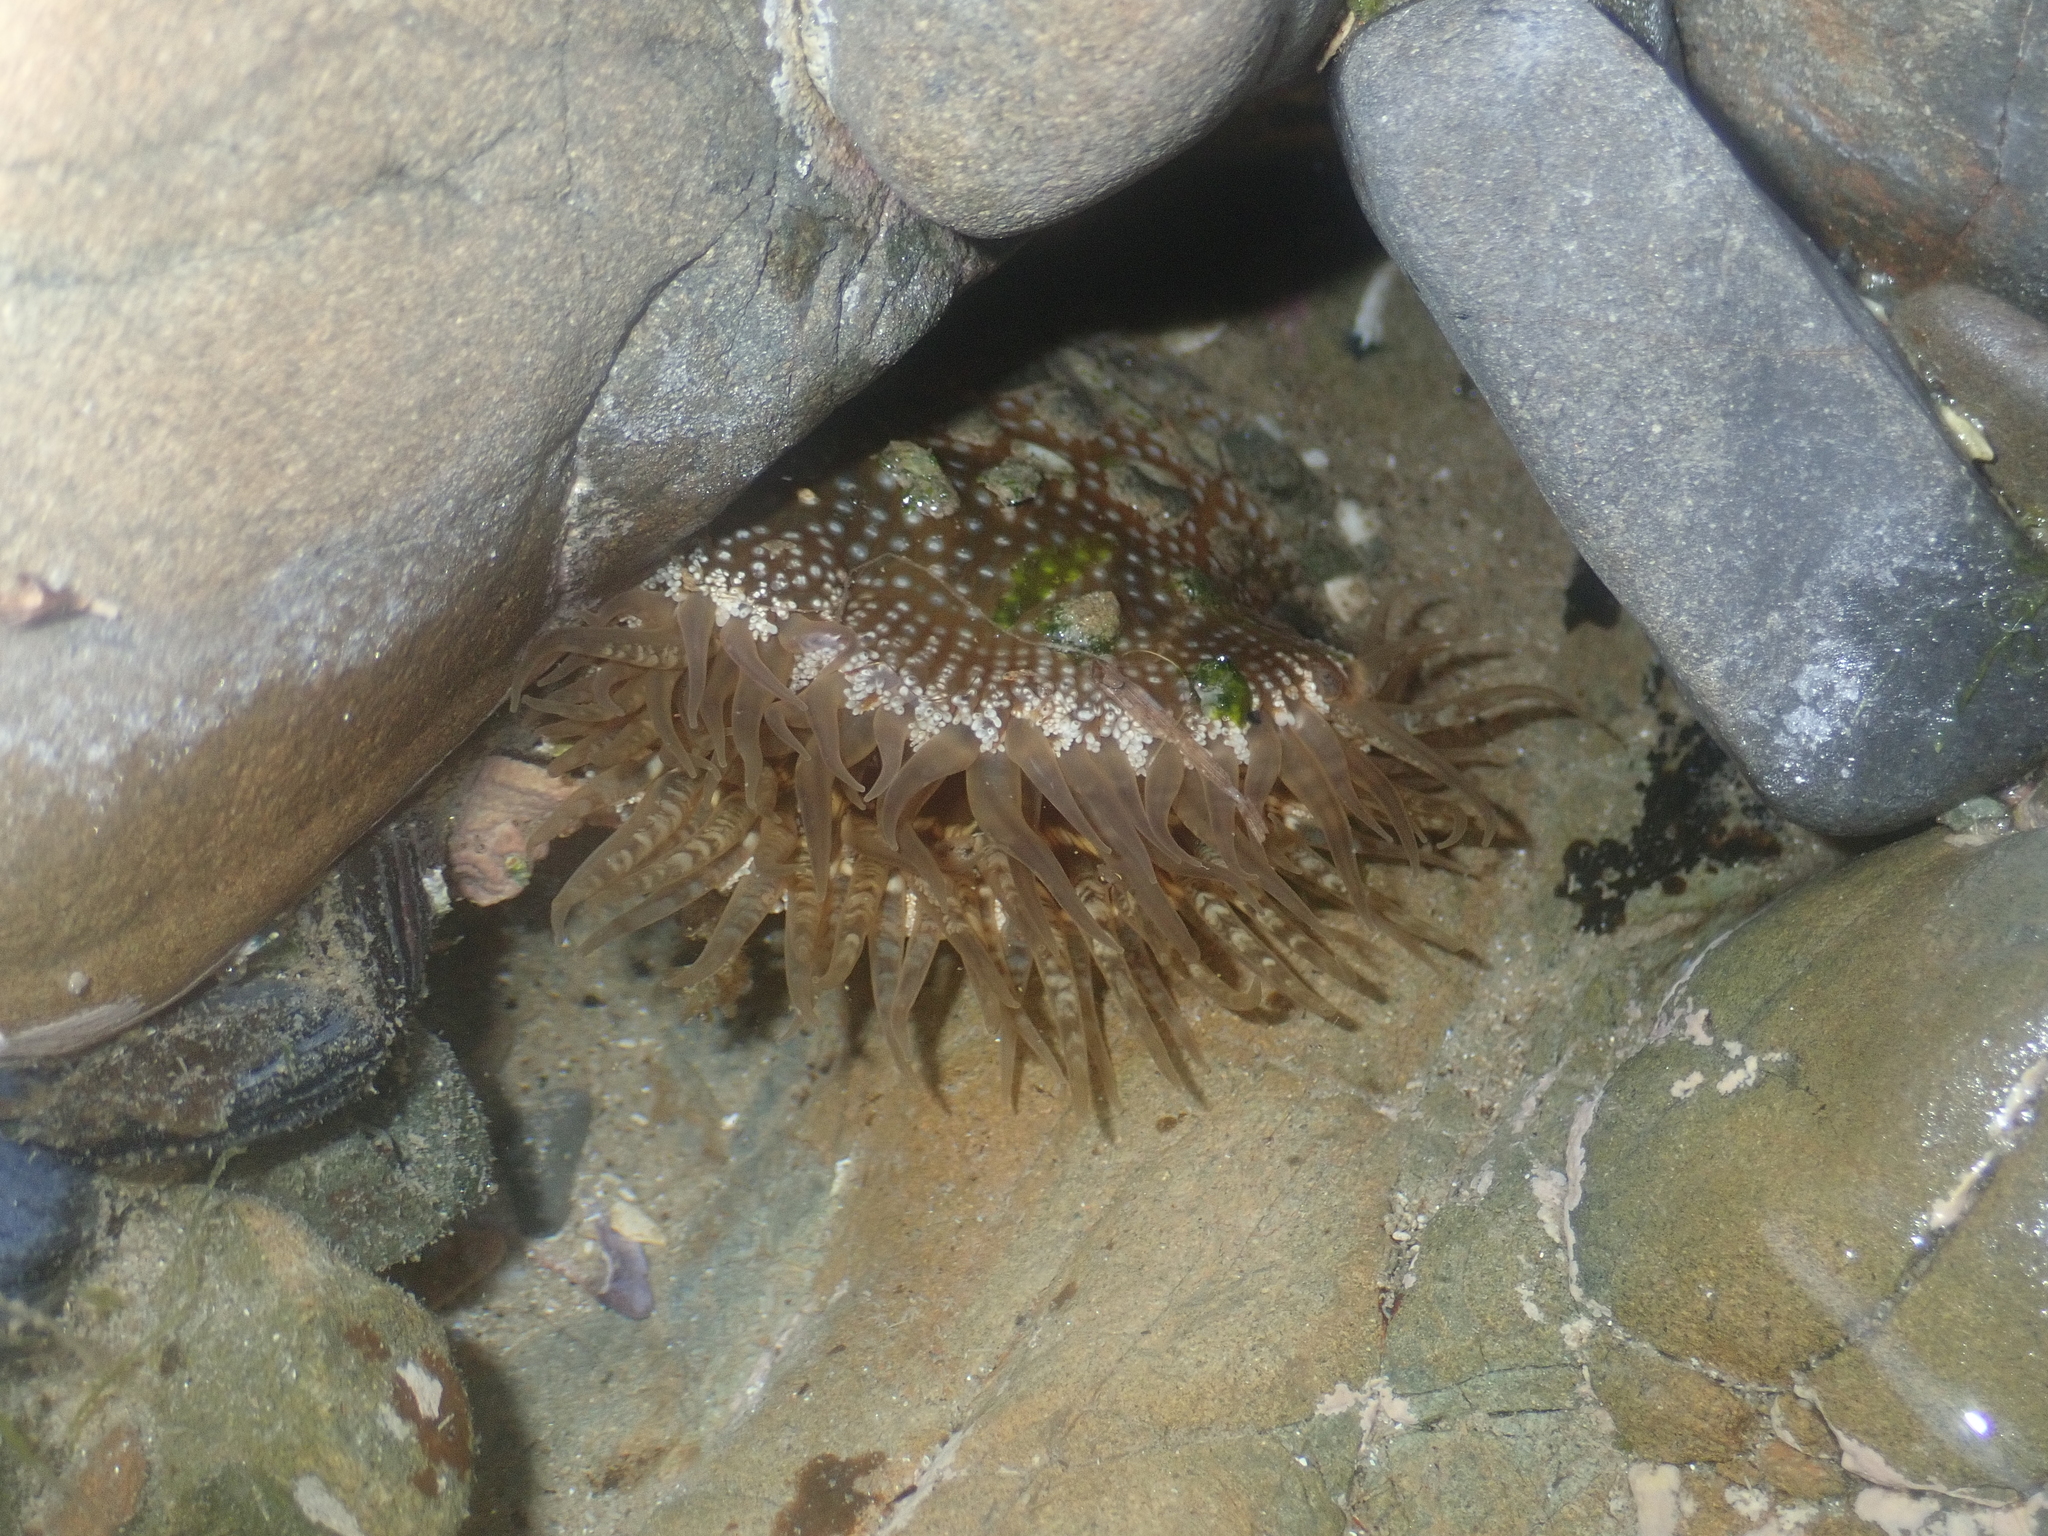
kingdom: Animalia
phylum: Cnidaria
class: Anthozoa
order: Actiniaria
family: Actiniidae
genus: Oulactis
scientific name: Oulactis muscosa
